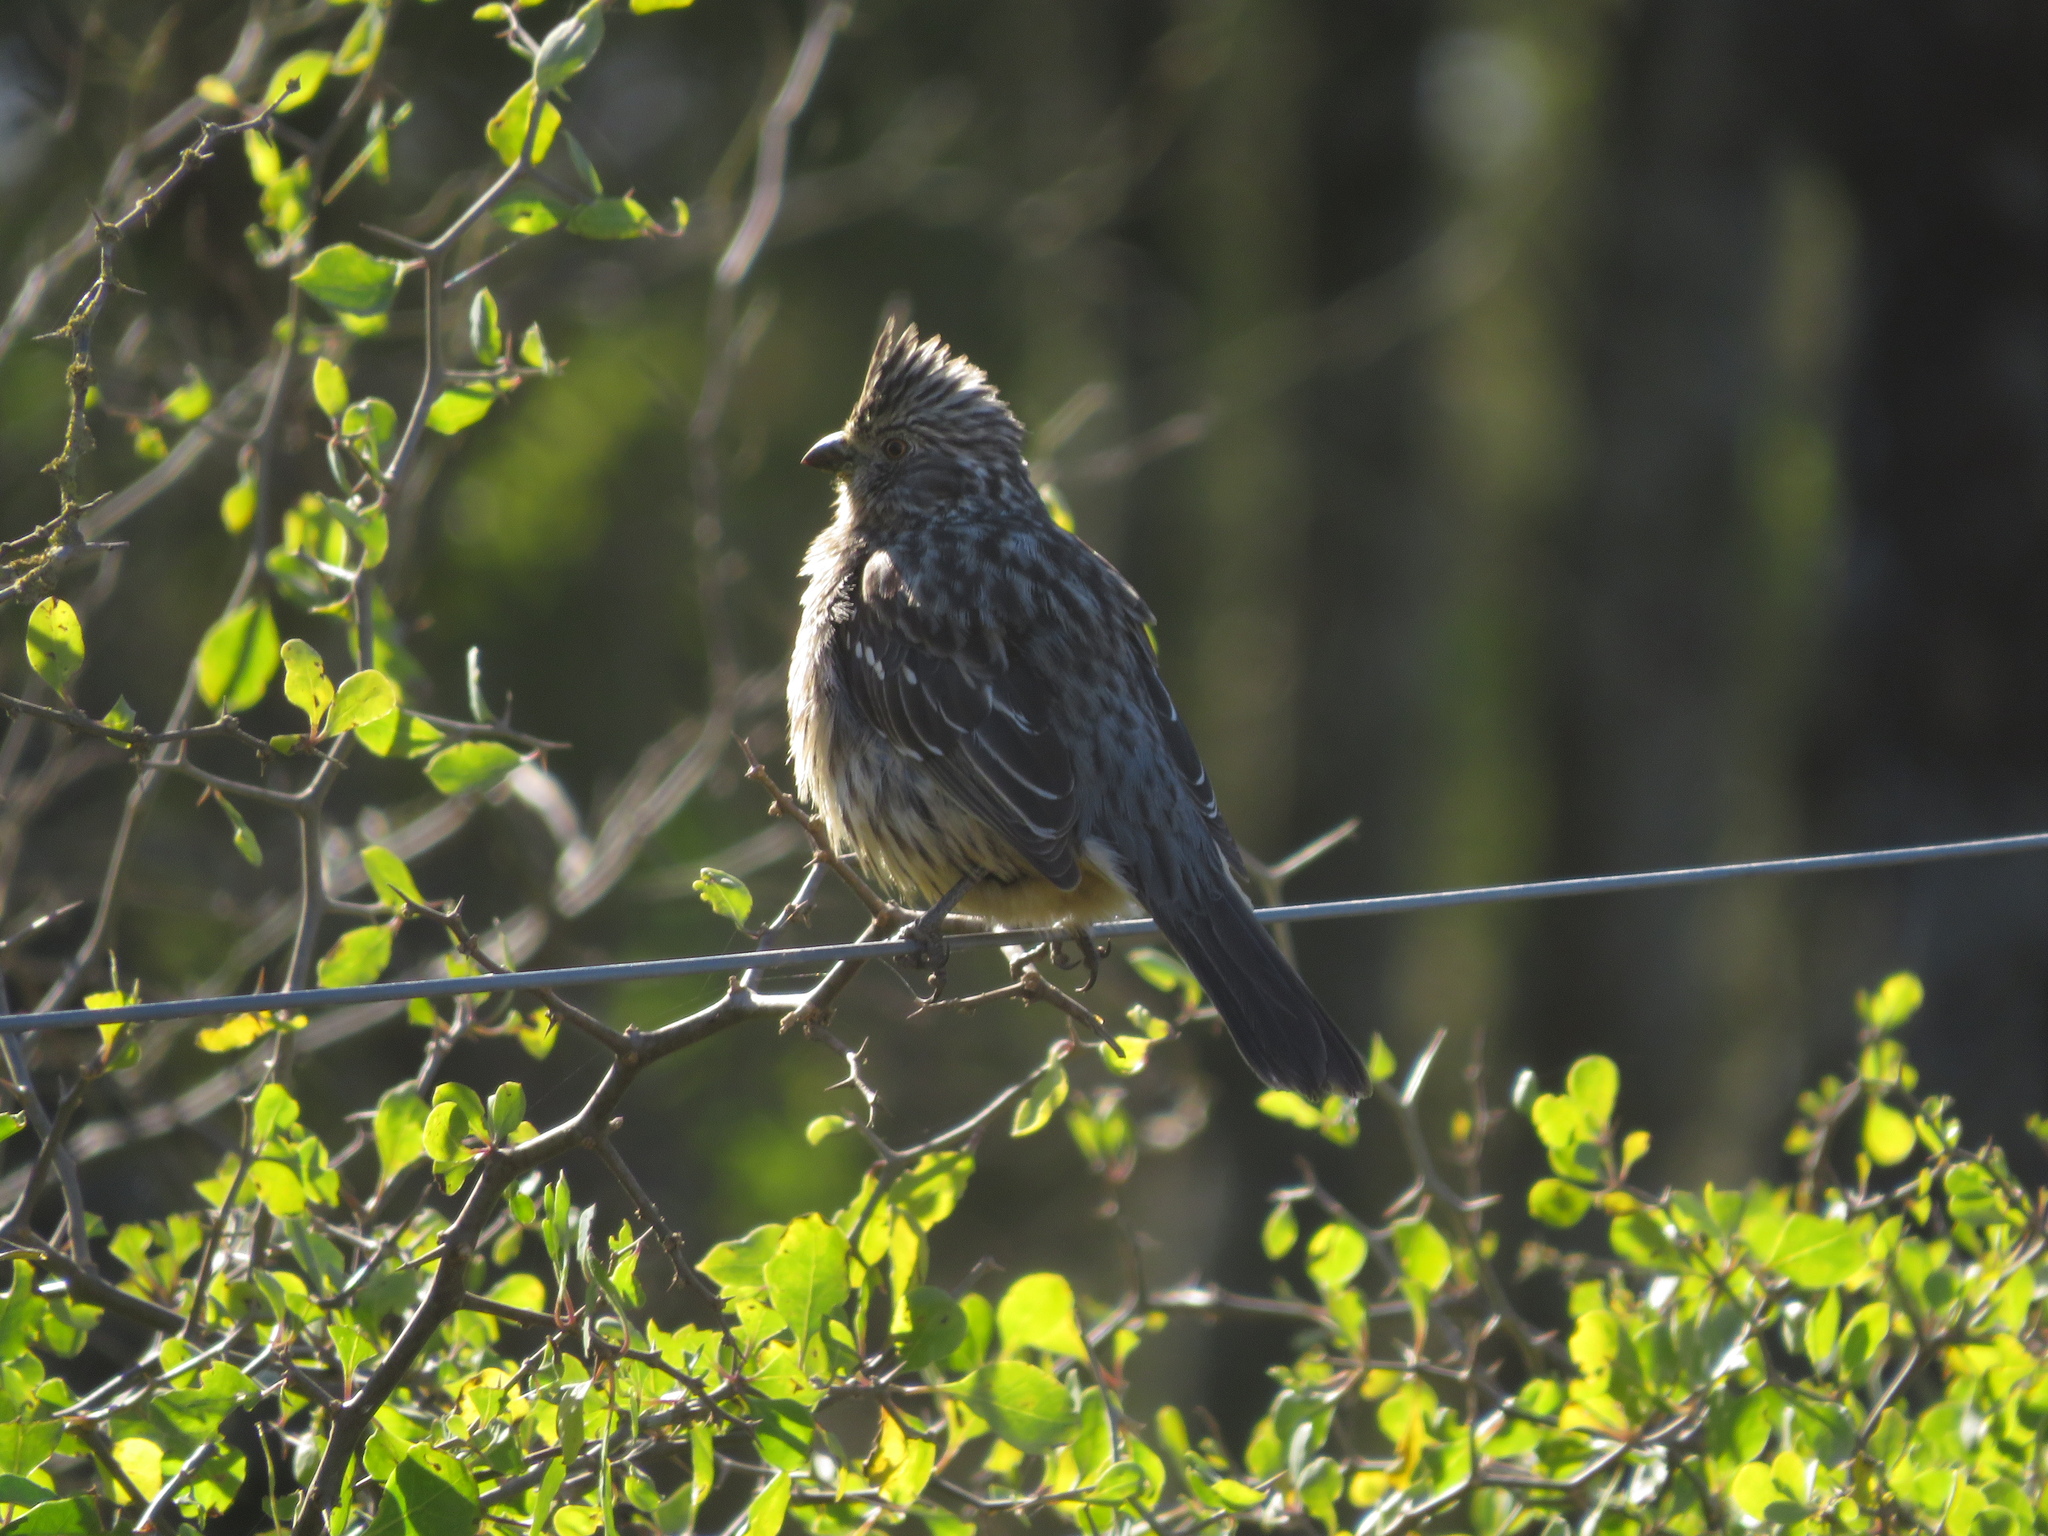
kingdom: Animalia
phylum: Chordata
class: Aves
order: Passeriformes
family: Cotingidae
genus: Phytotoma
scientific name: Phytotoma rutila
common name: White-tipped plantcutter
